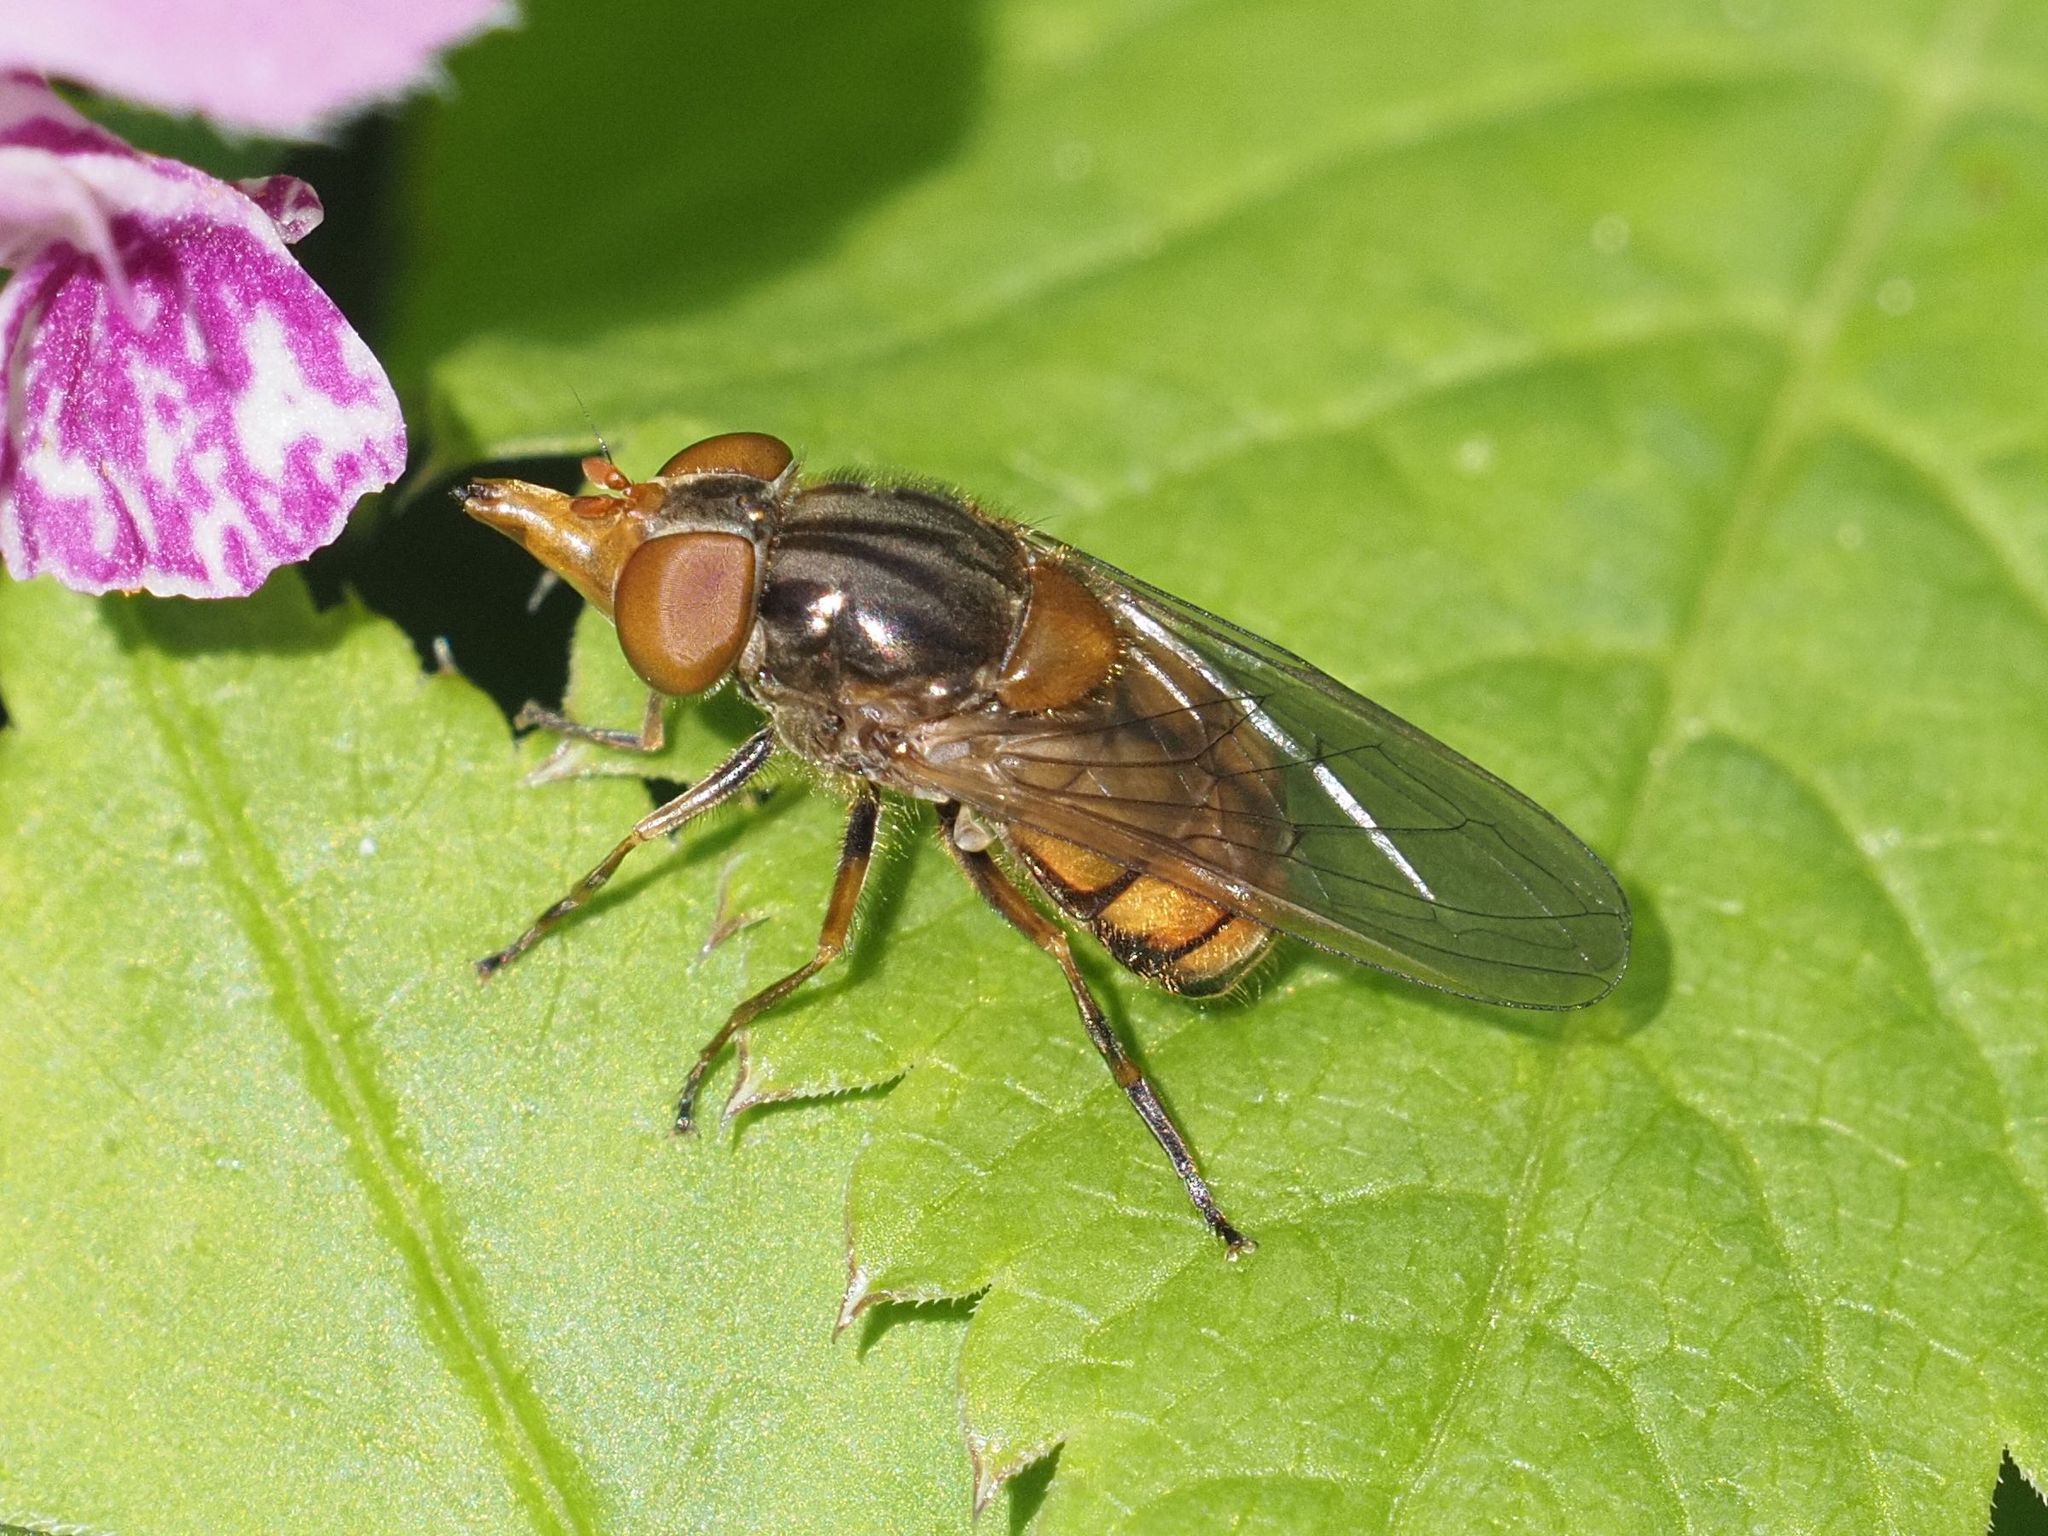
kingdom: Animalia
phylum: Arthropoda
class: Insecta
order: Diptera
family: Syrphidae
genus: Rhingia
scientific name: Rhingia campestris
